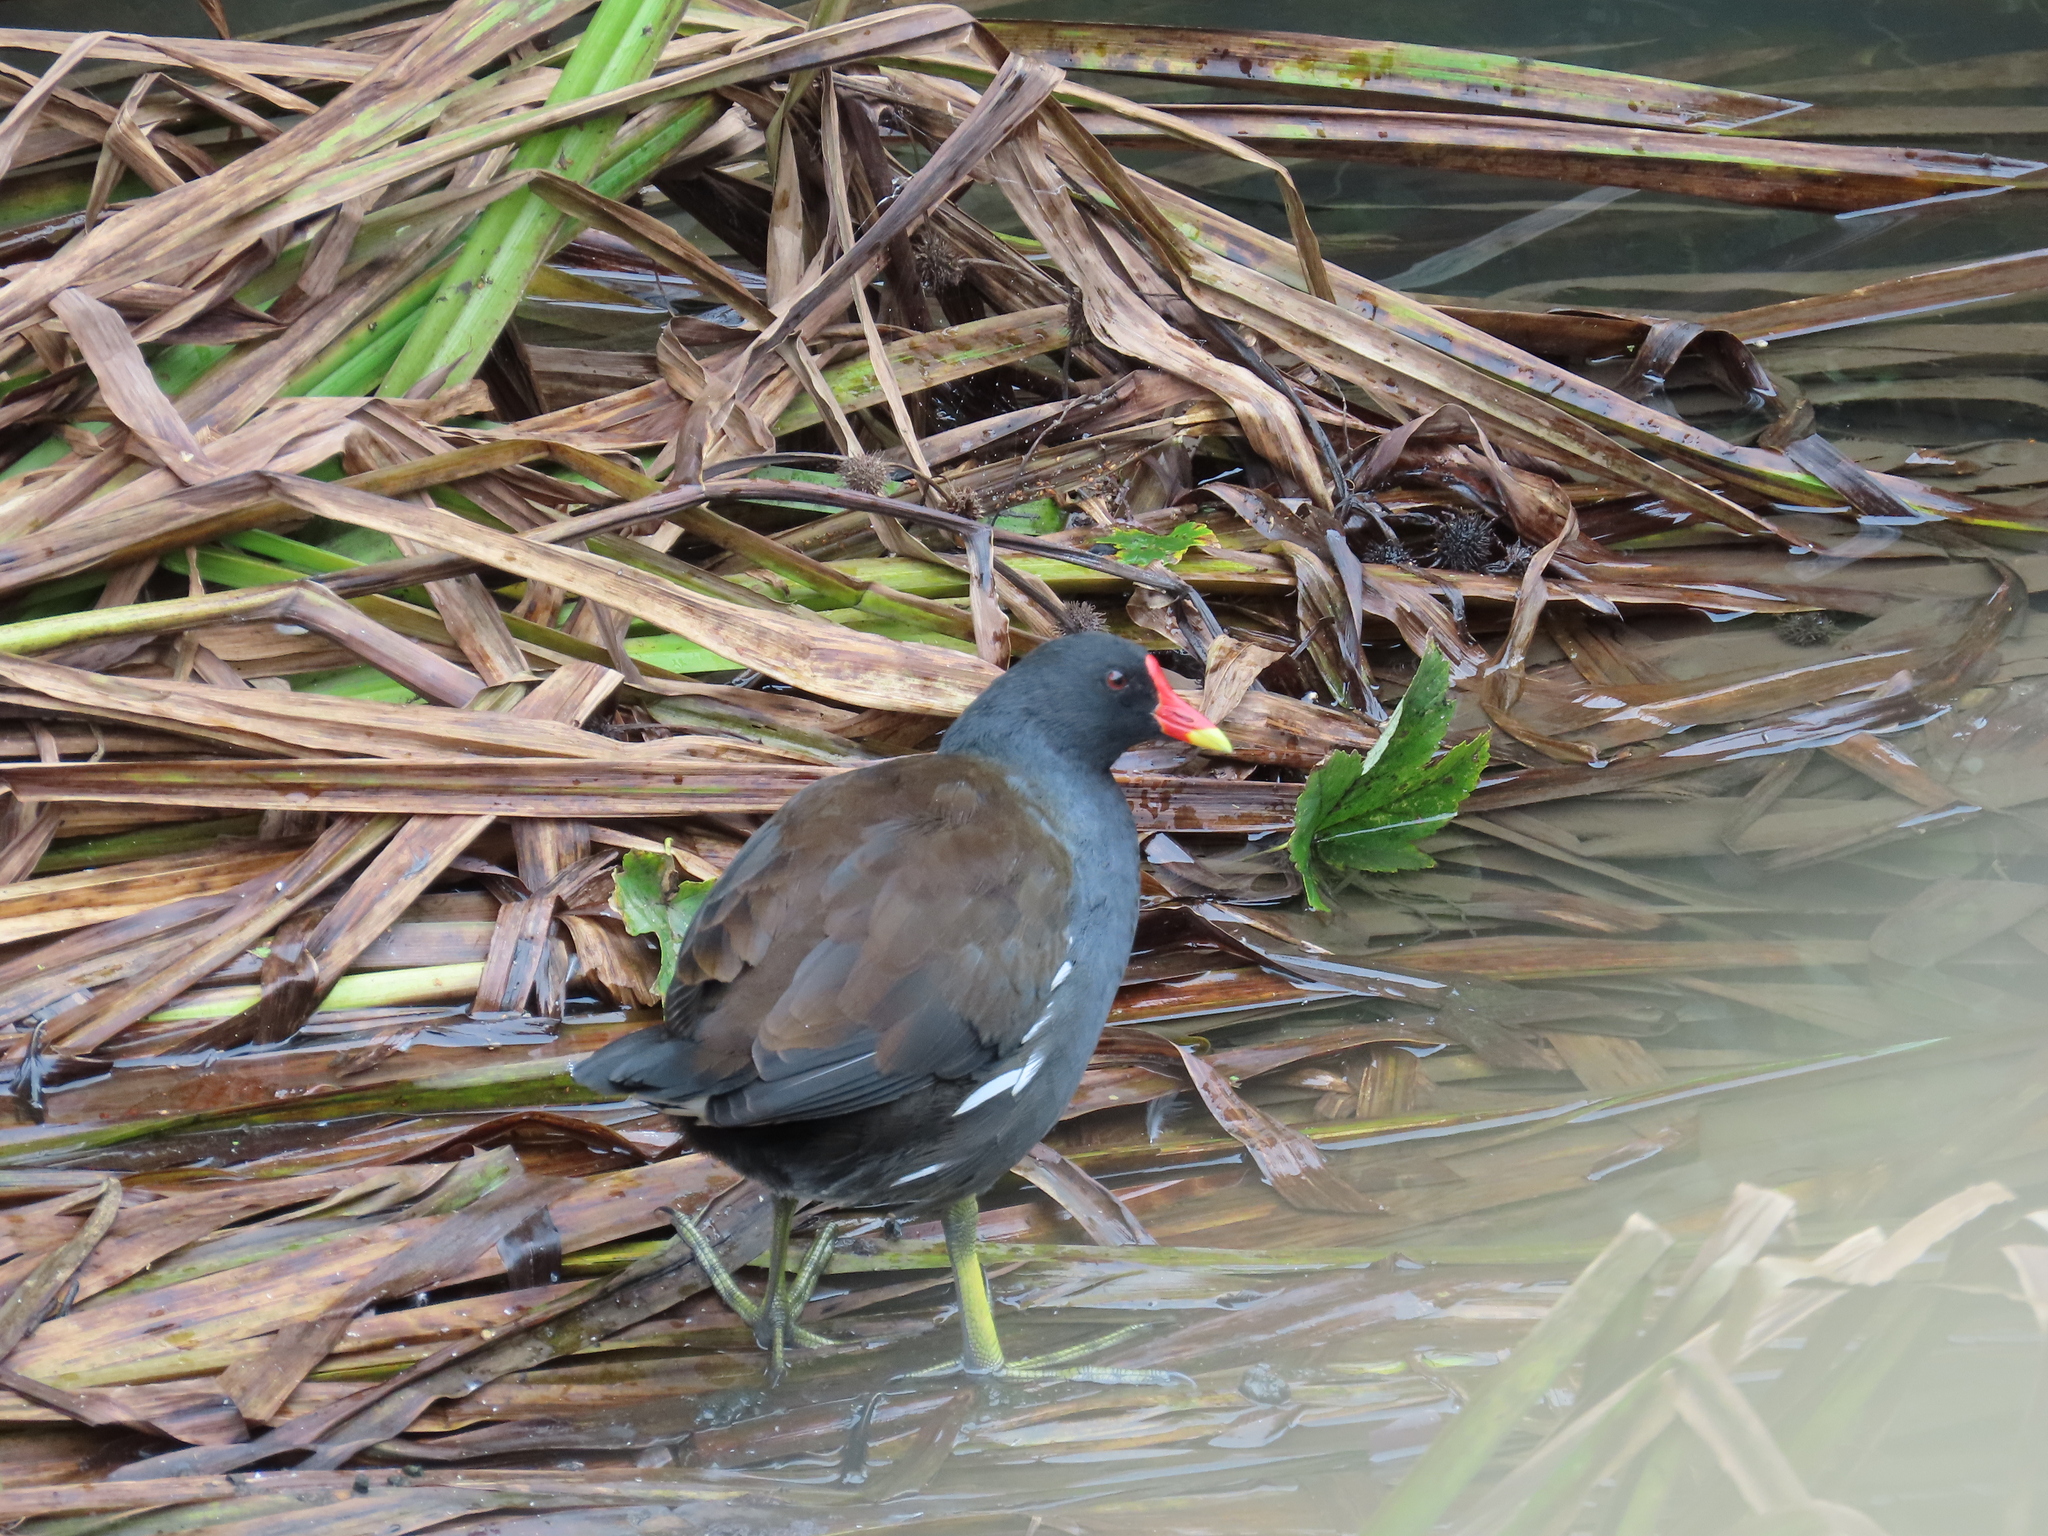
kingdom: Animalia
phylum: Chordata
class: Aves
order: Gruiformes
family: Rallidae
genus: Gallinula
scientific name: Gallinula chloropus
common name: Common moorhen
